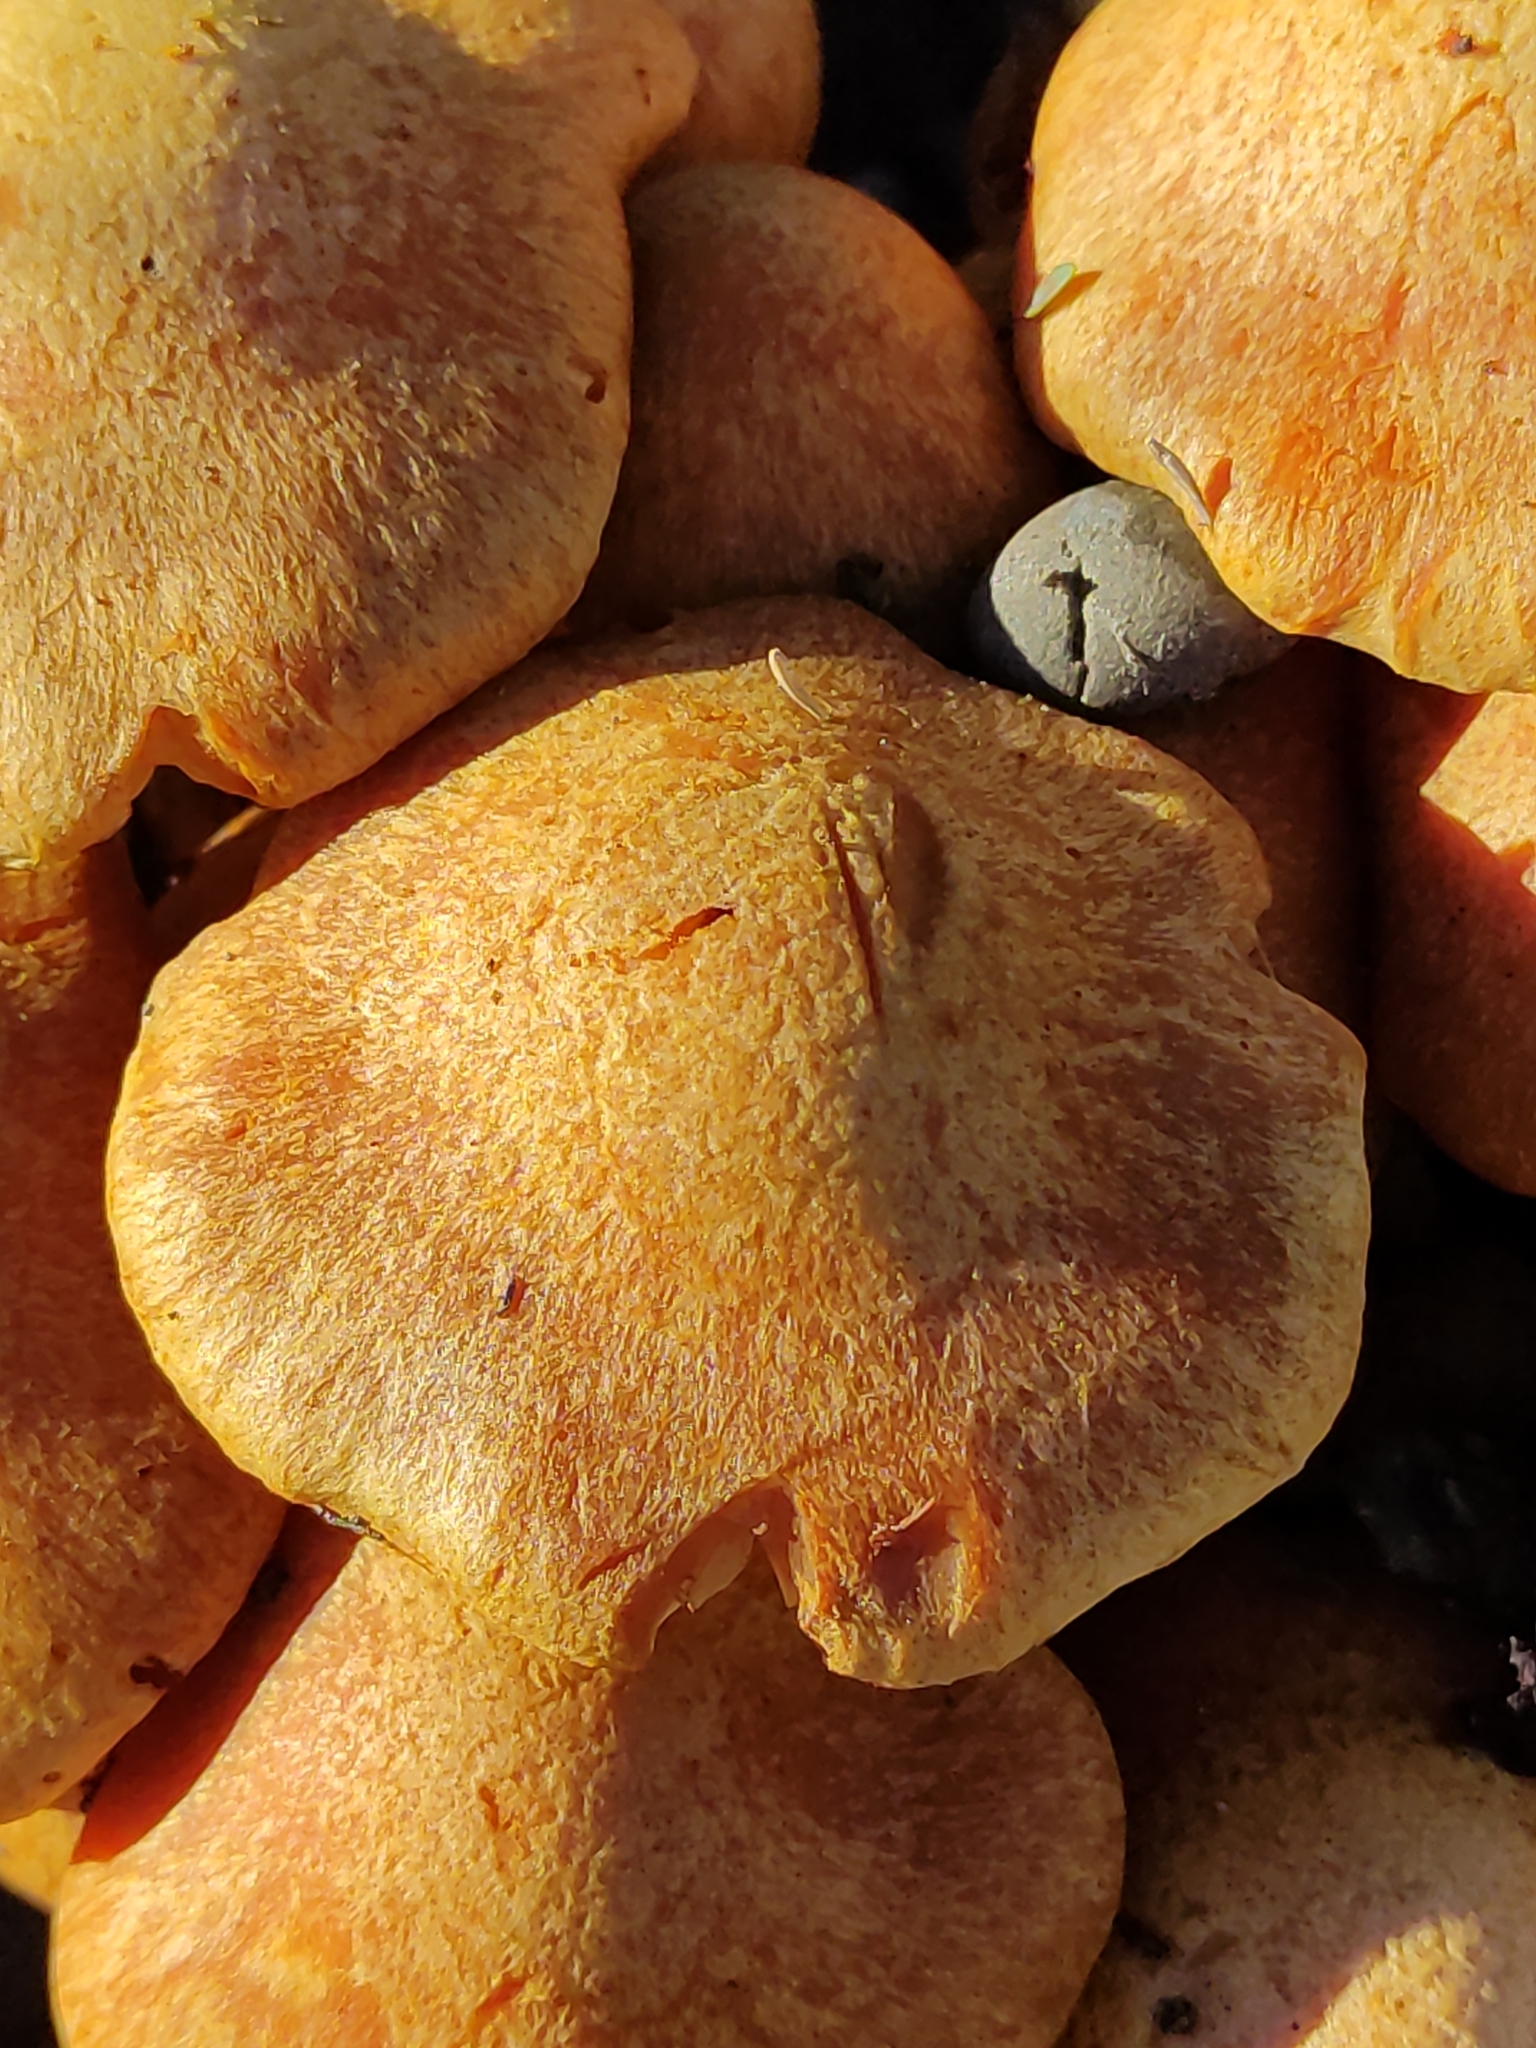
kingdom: Fungi
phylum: Basidiomycota
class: Agaricomycetes
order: Agaricales
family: Hymenogastraceae
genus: Gymnopilus
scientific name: Gymnopilus junonius
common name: Spectacular rustgill
